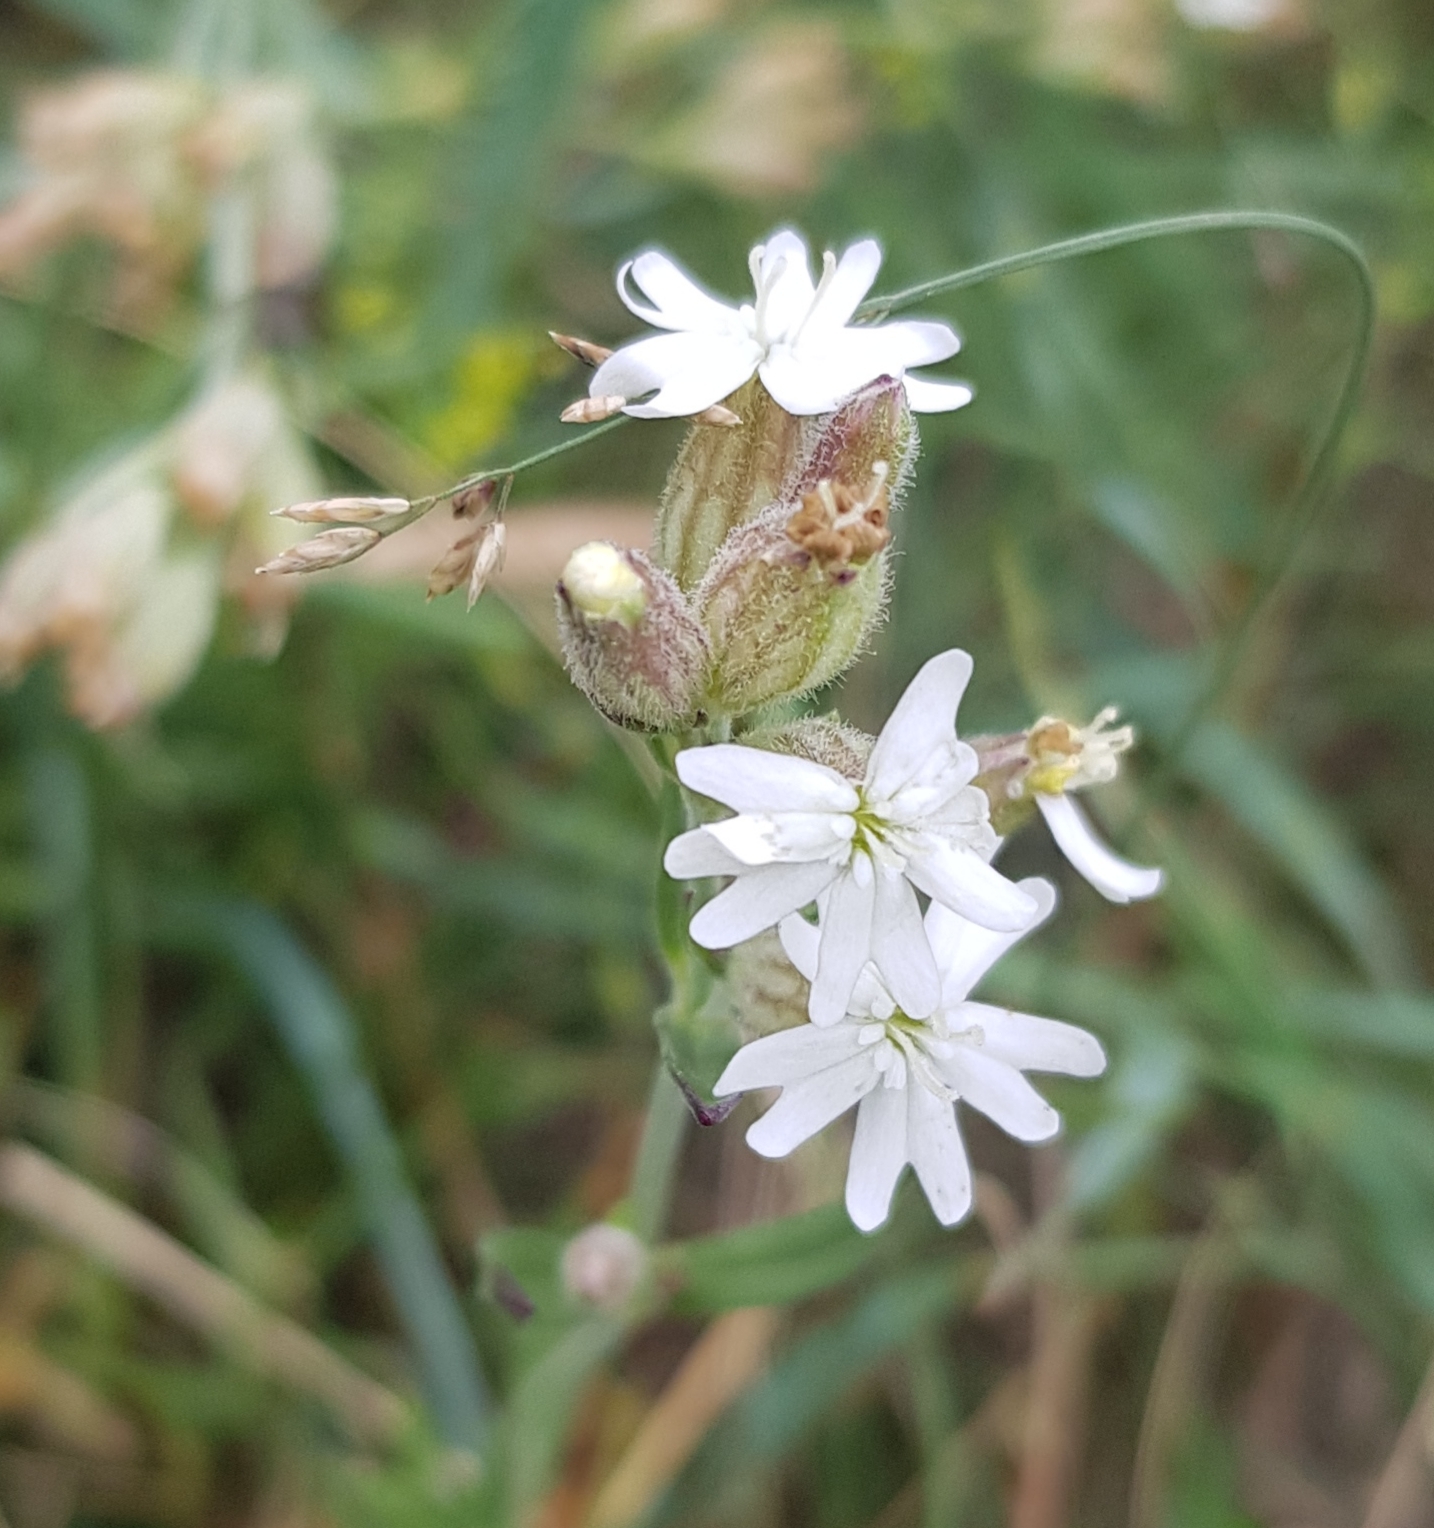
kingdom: Plantae
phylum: Tracheophyta
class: Magnoliopsida
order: Caryophyllales
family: Caryophyllaceae
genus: Silene
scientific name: Silene repens
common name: Pink campion
